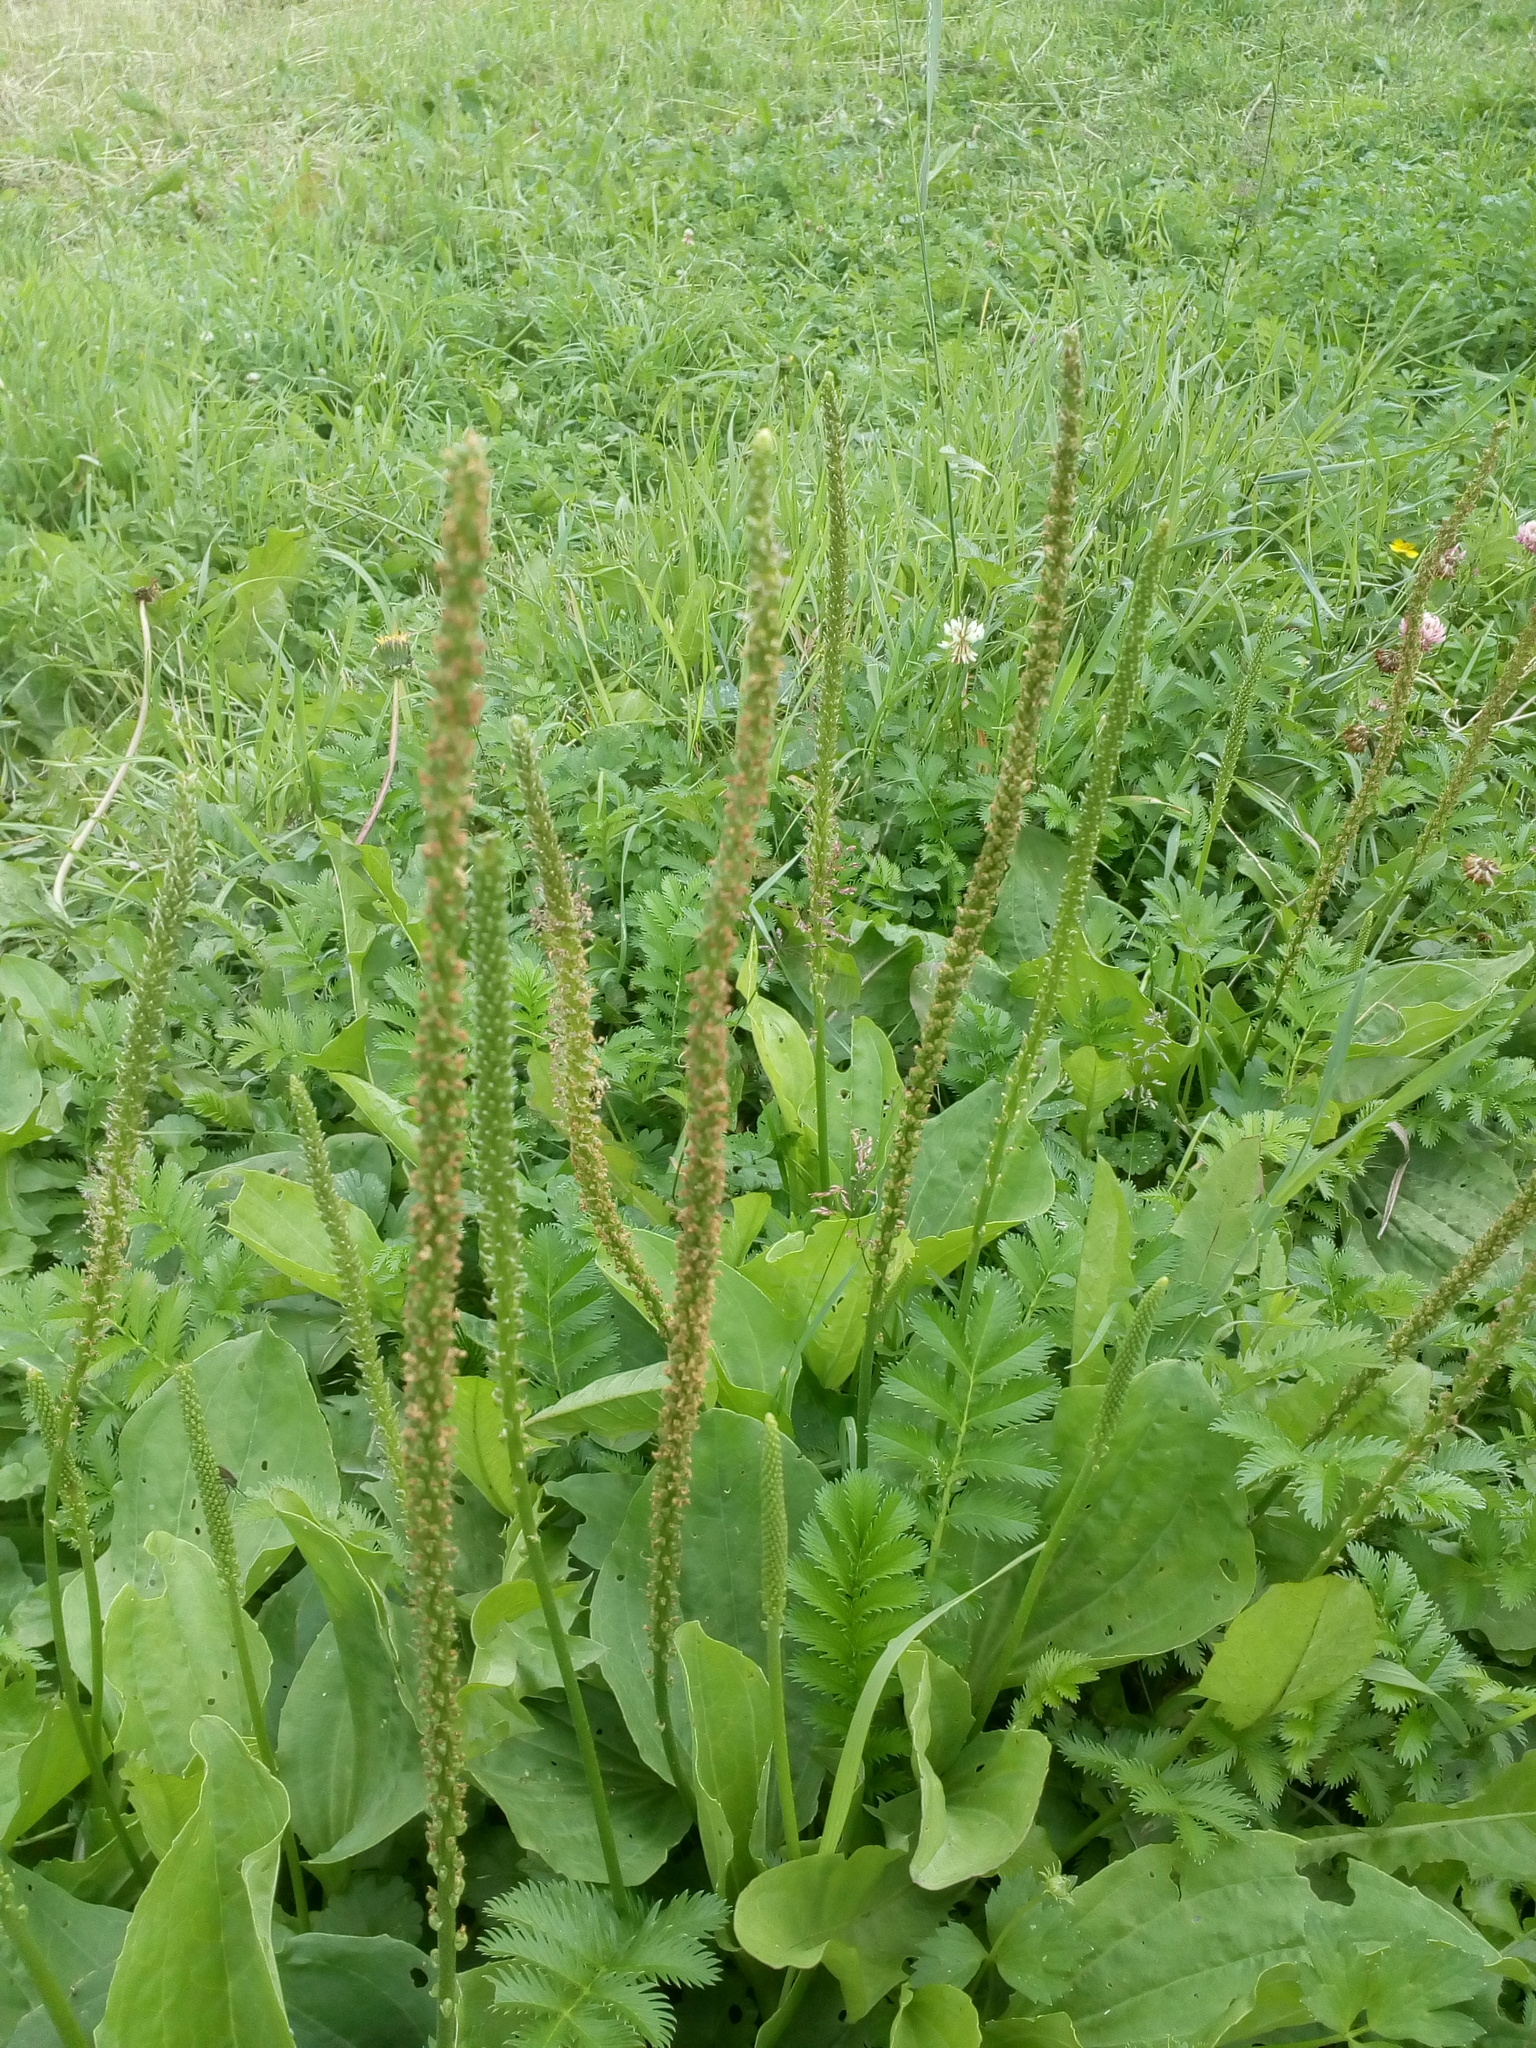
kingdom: Plantae
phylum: Tracheophyta
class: Magnoliopsida
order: Lamiales
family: Plantaginaceae
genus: Plantago
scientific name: Plantago major
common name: Common plantain
